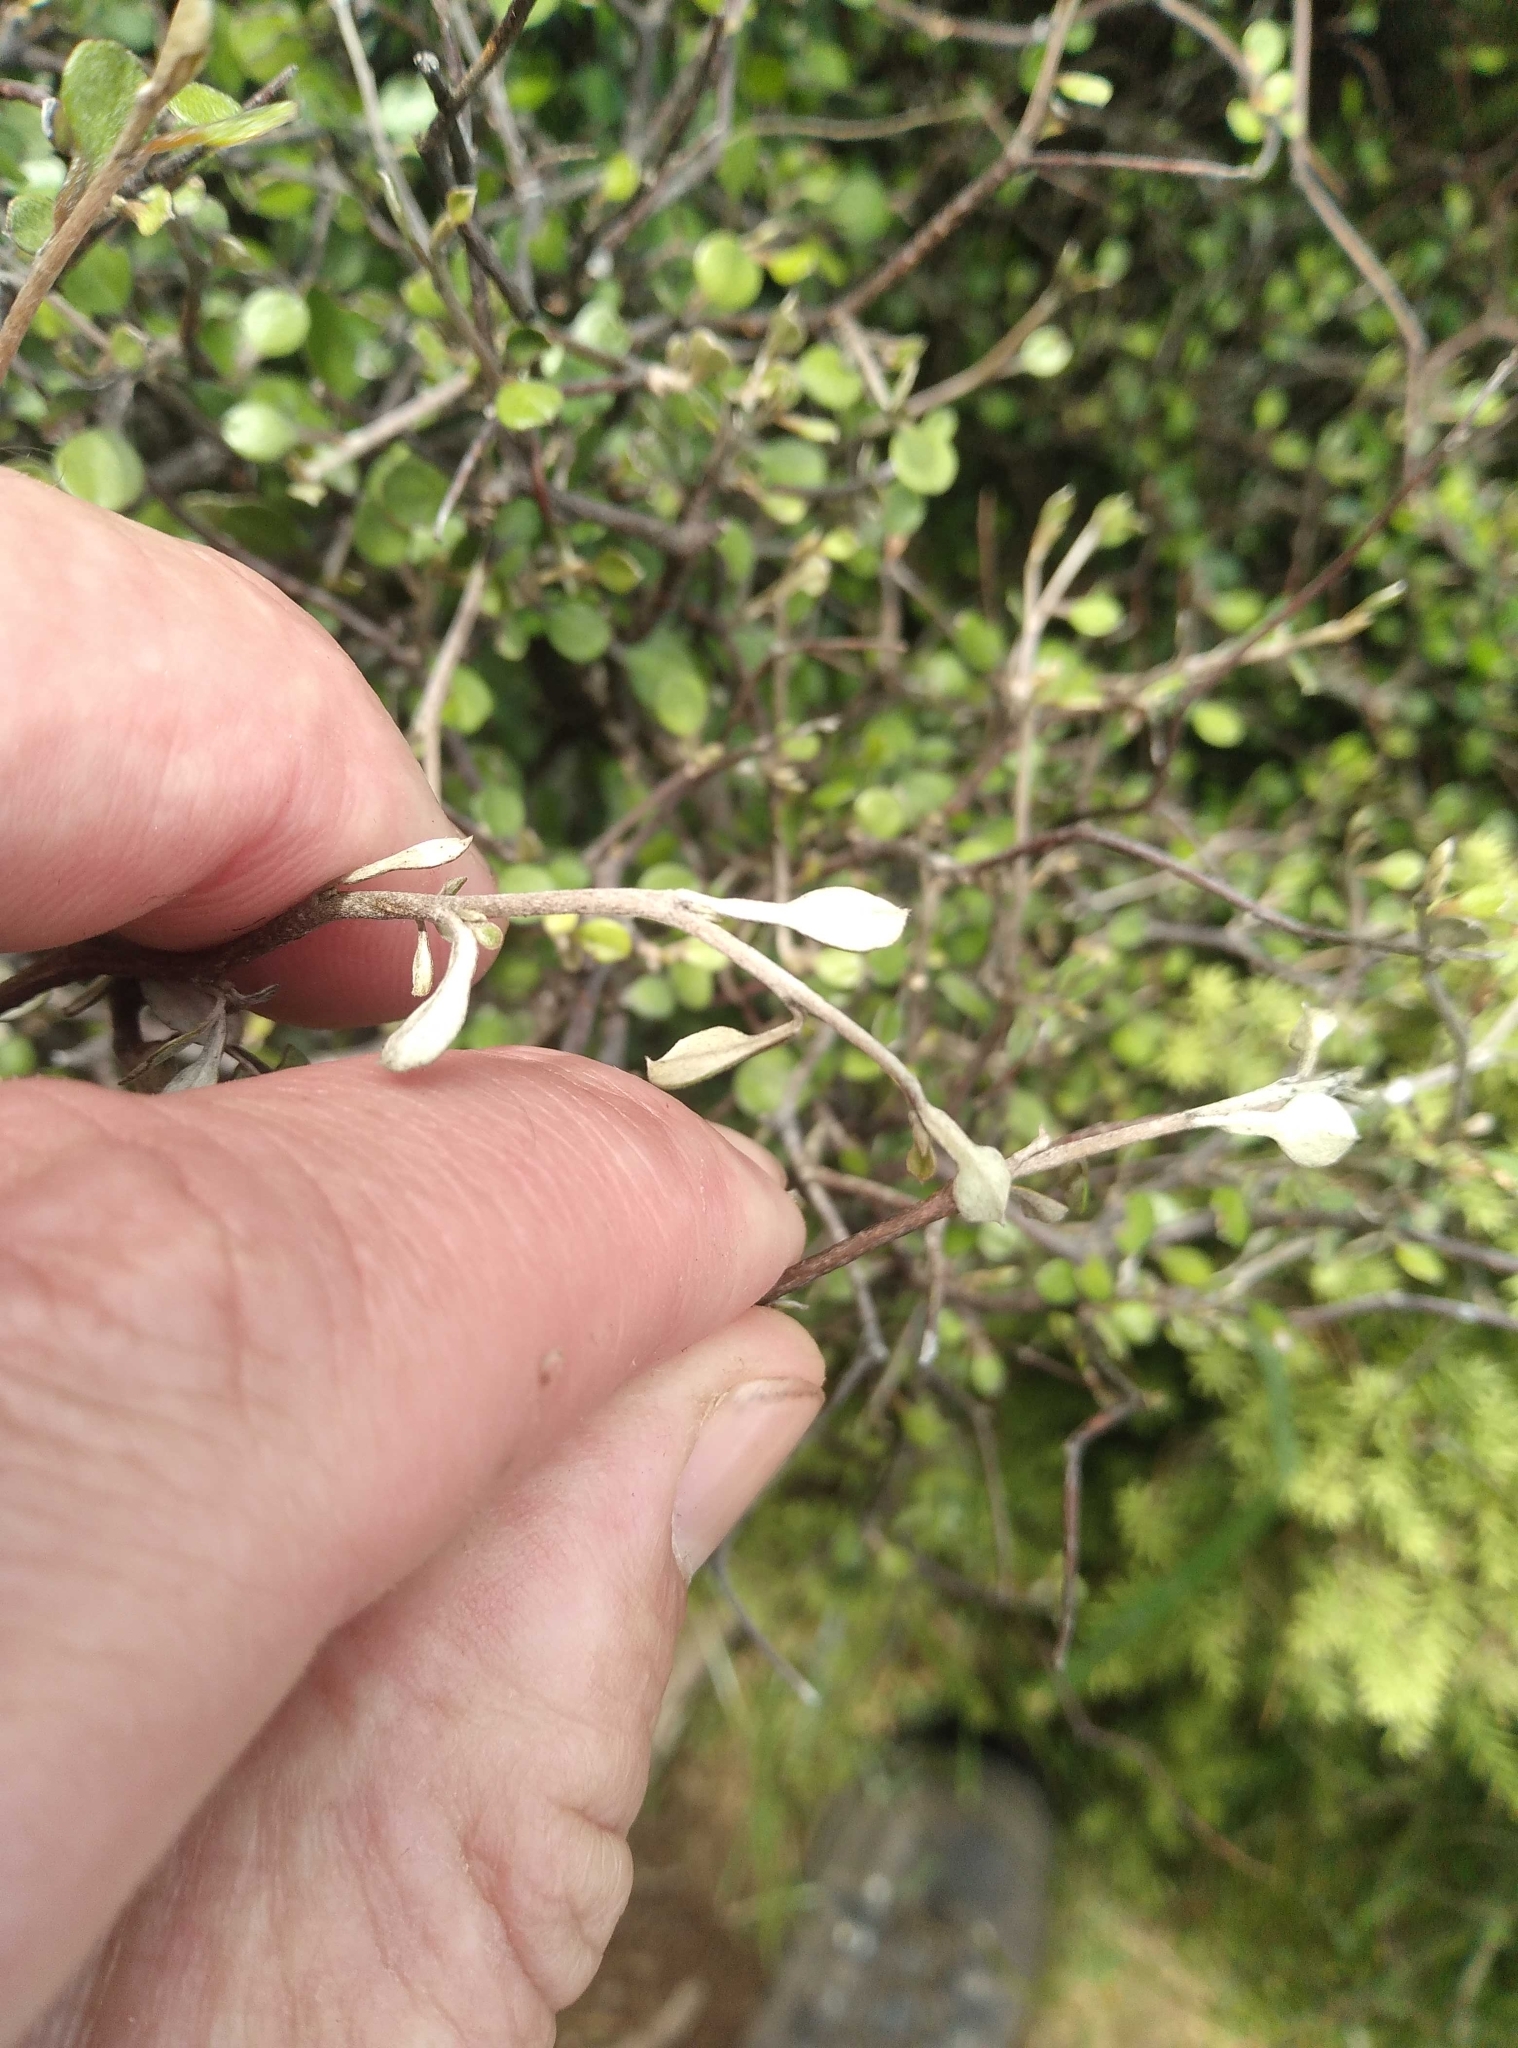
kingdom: Plantae
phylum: Tracheophyta
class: Magnoliopsida
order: Asterales
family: Argophyllaceae
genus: Corokia
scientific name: Corokia cotoneaster
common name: Wire nettingbush
